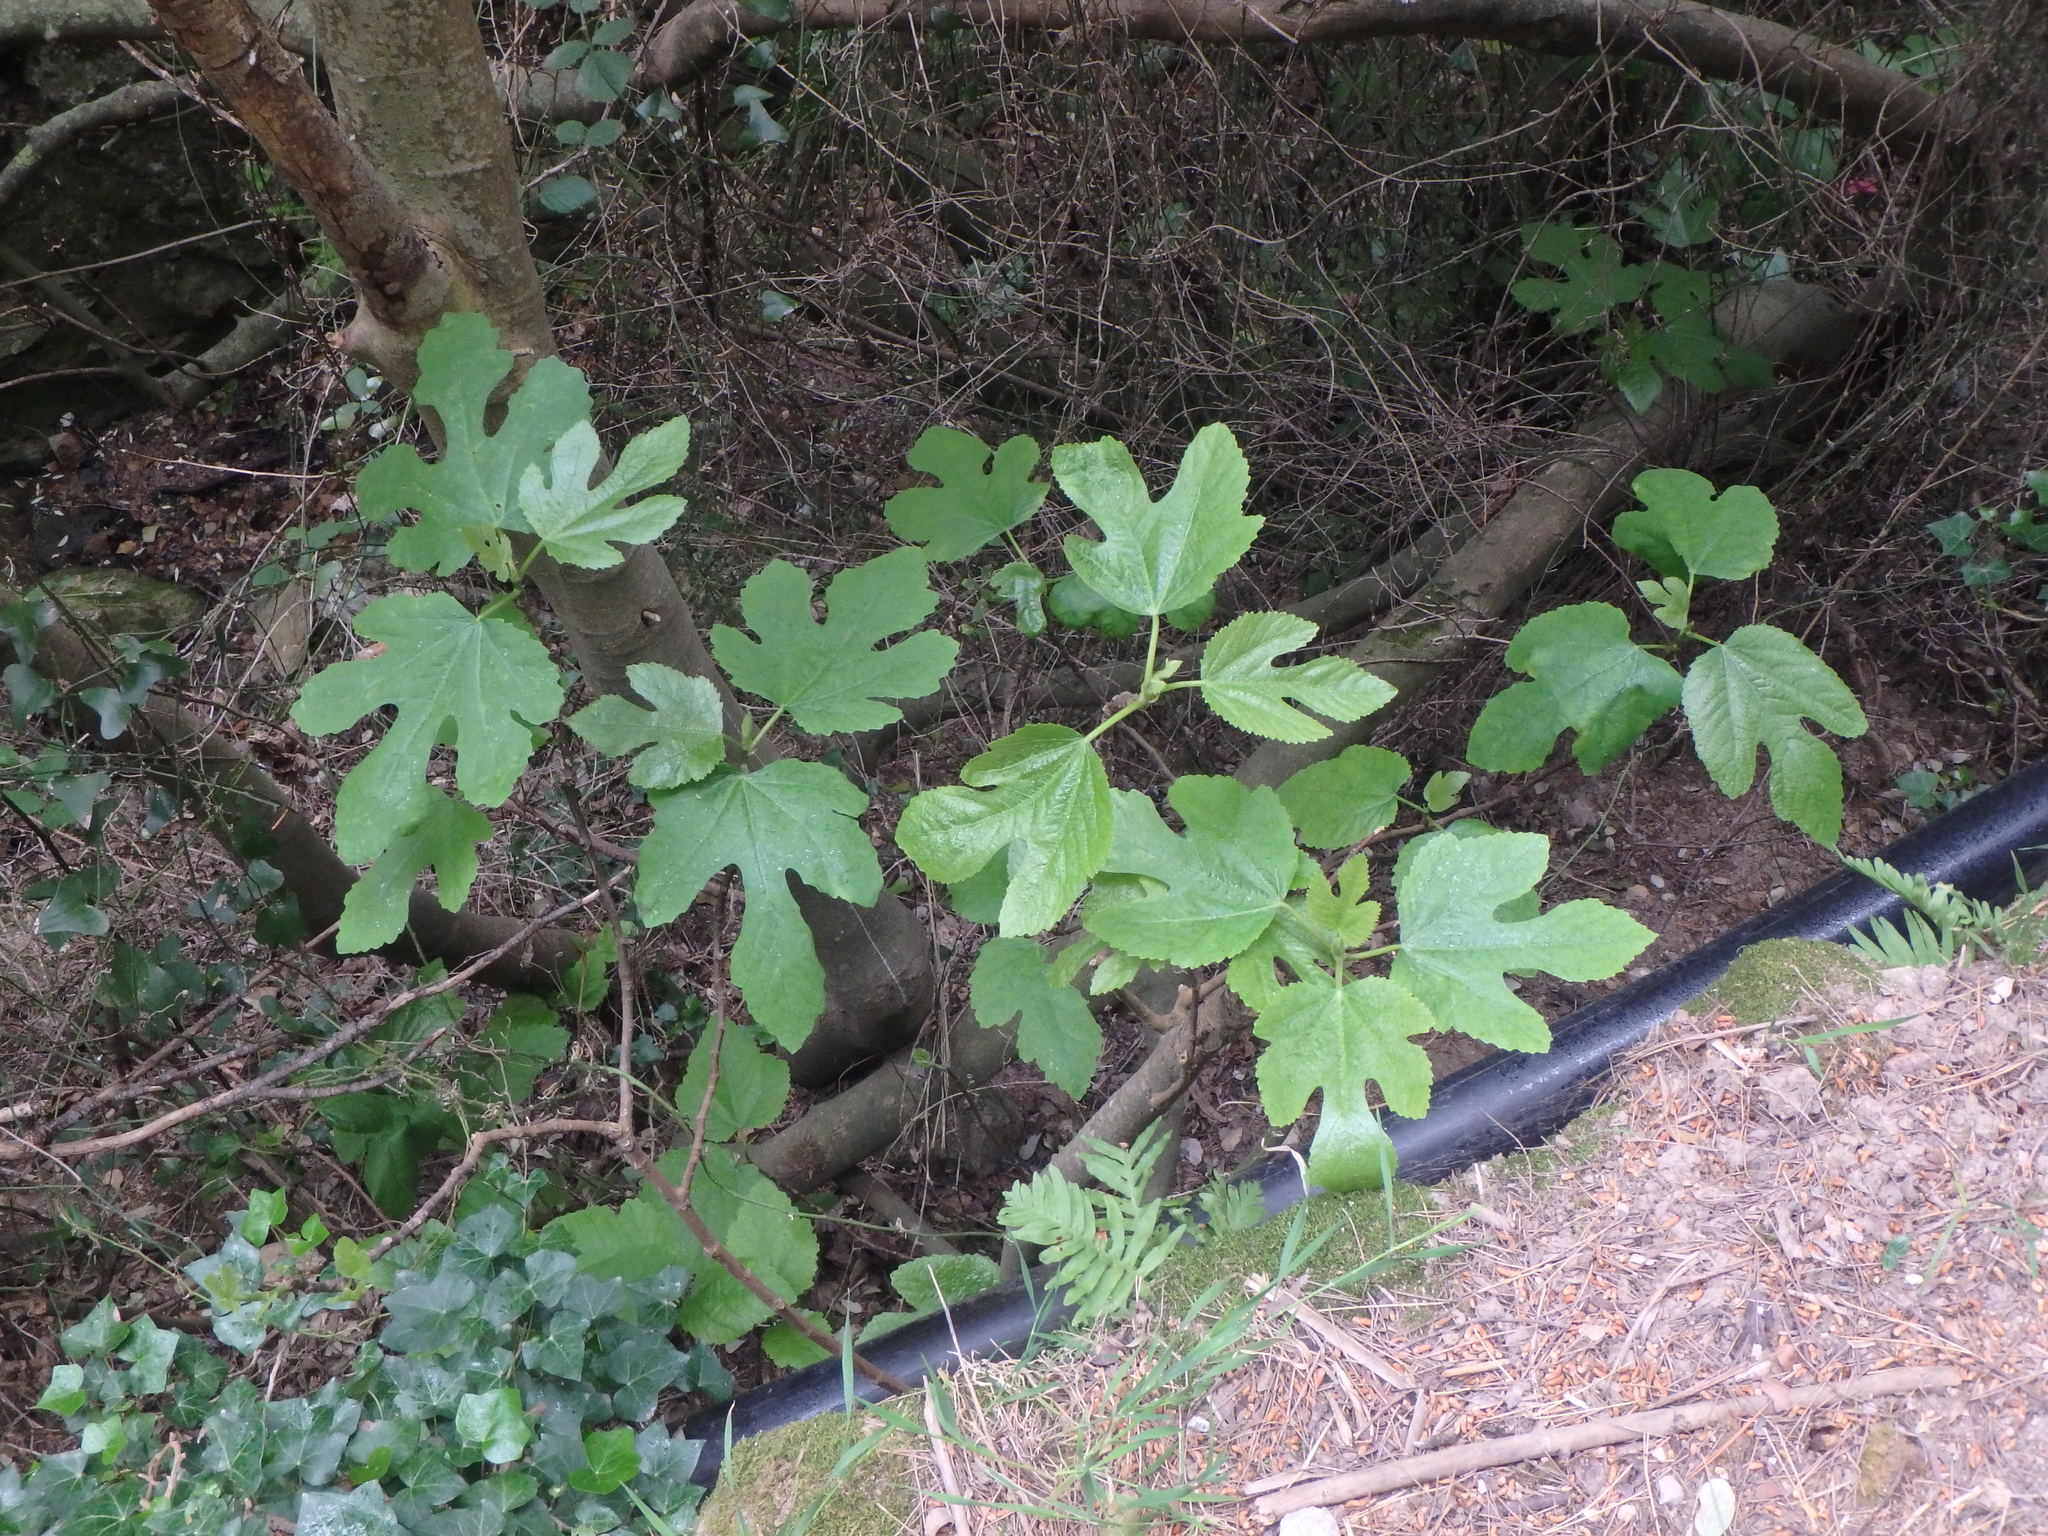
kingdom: Plantae
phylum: Tracheophyta
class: Magnoliopsida
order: Rosales
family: Moraceae
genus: Ficus
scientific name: Ficus carica
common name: Fig
